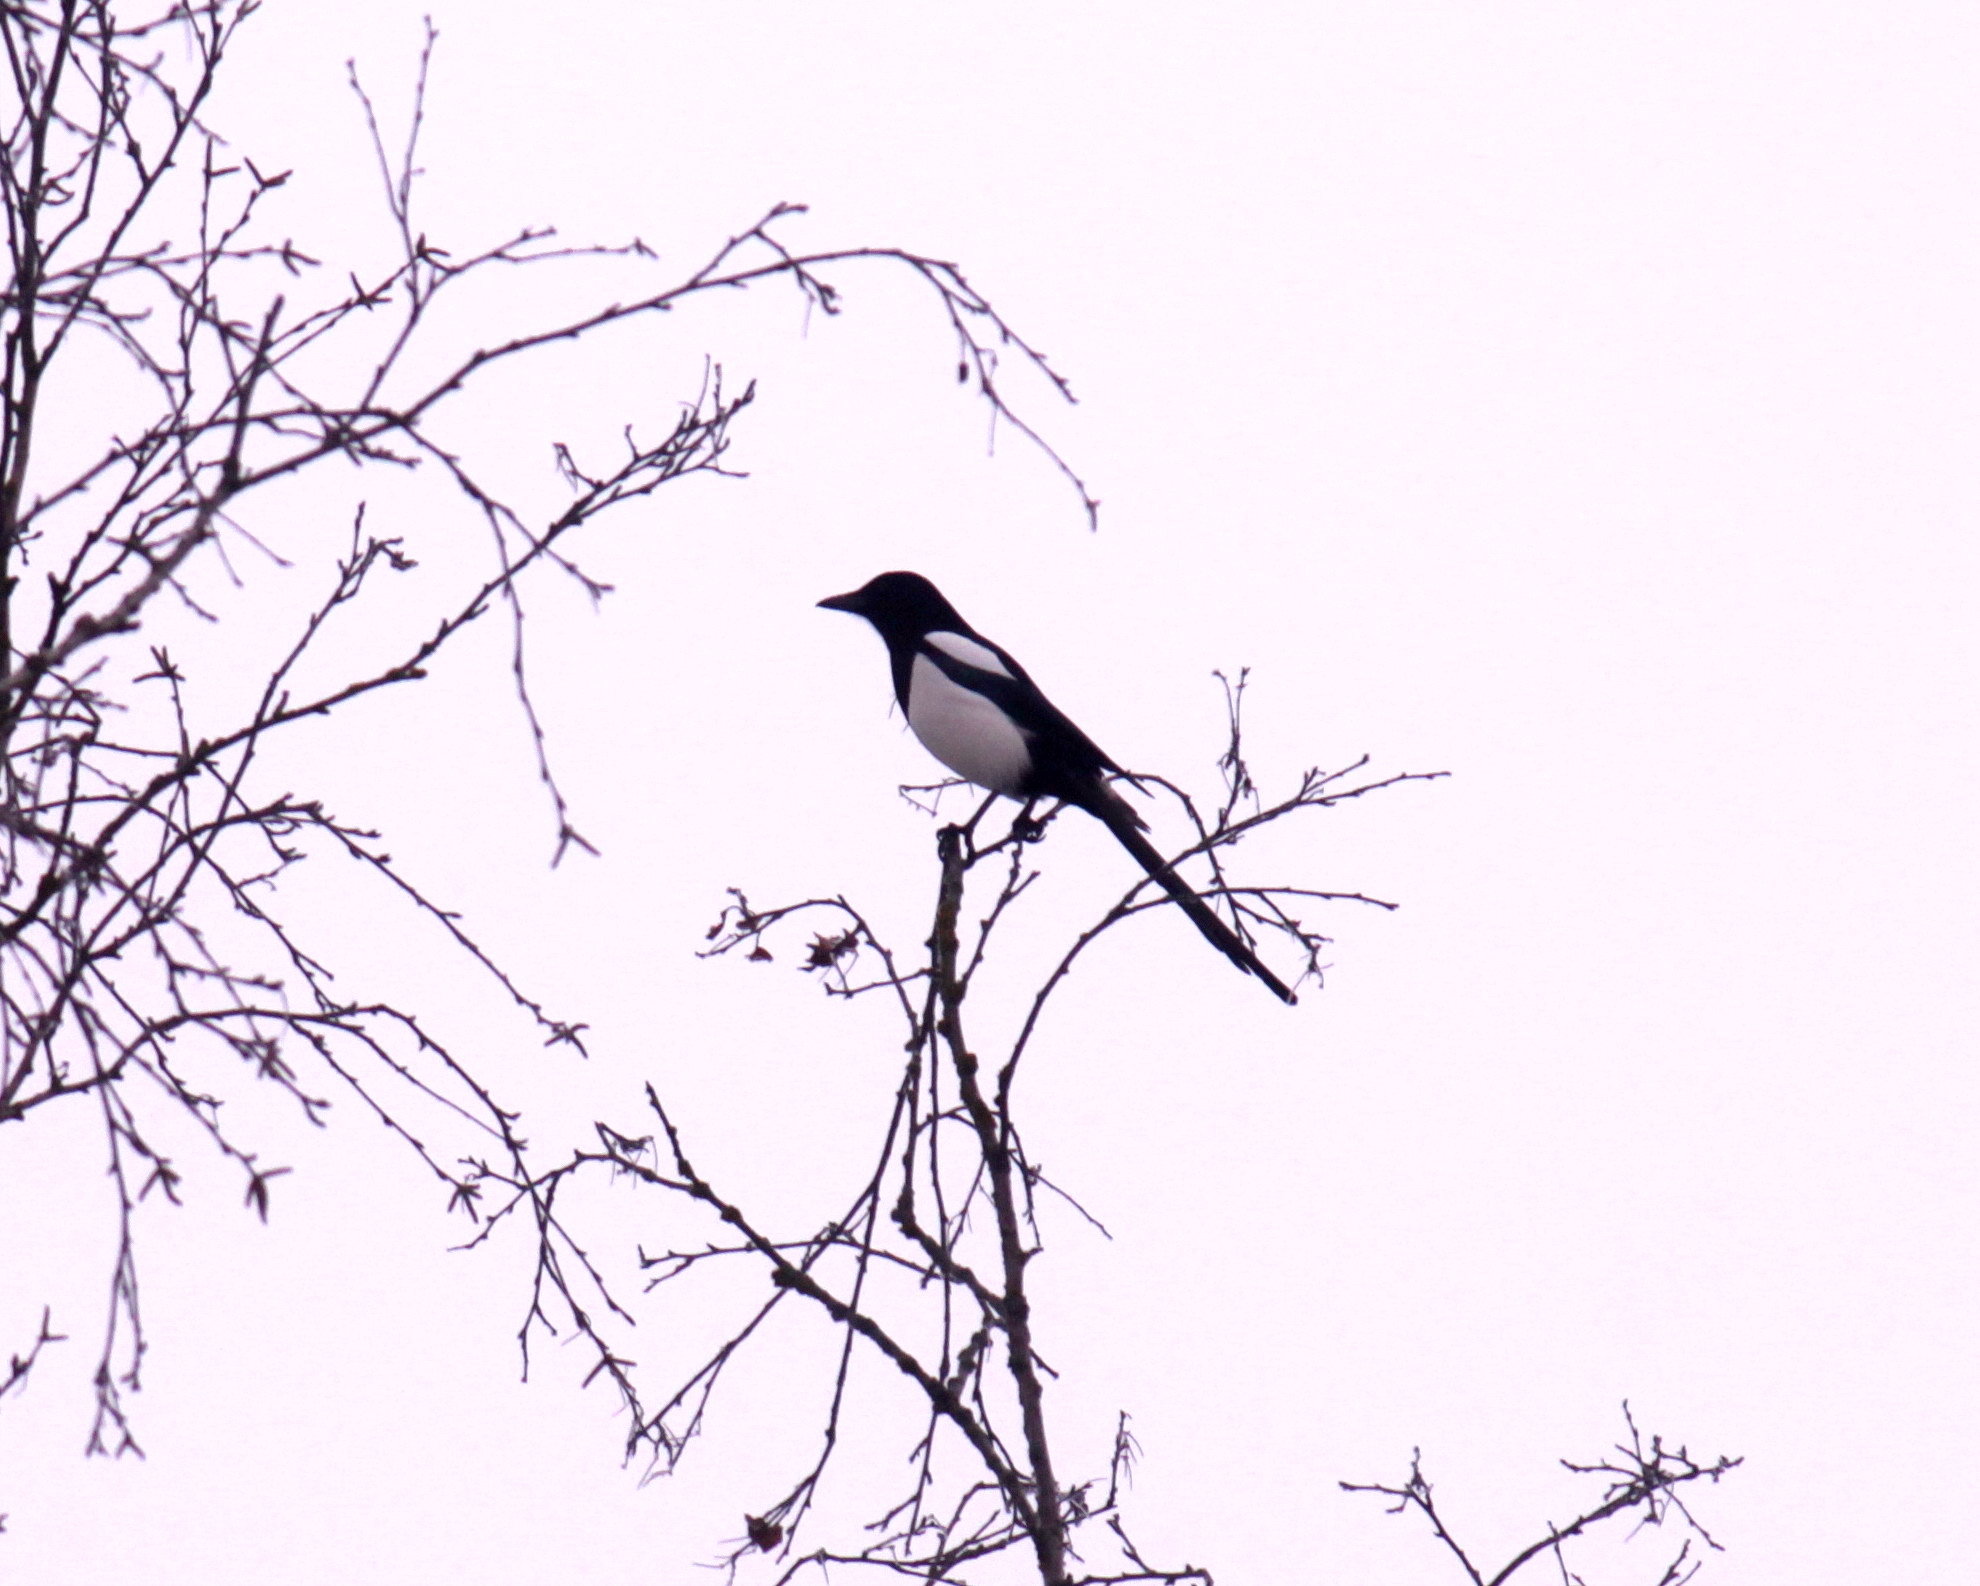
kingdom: Animalia
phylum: Chordata
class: Aves
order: Passeriformes
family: Corvidae
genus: Pica
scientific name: Pica pica
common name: Eurasian magpie
